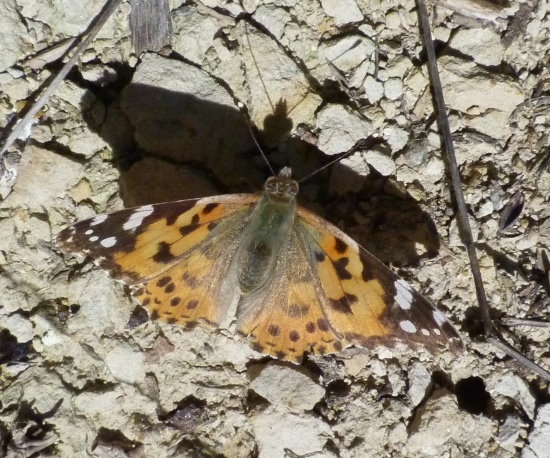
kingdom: Animalia
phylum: Arthropoda
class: Insecta
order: Lepidoptera
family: Nymphalidae
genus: Vanessa
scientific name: Vanessa cardui
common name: Painted lady
